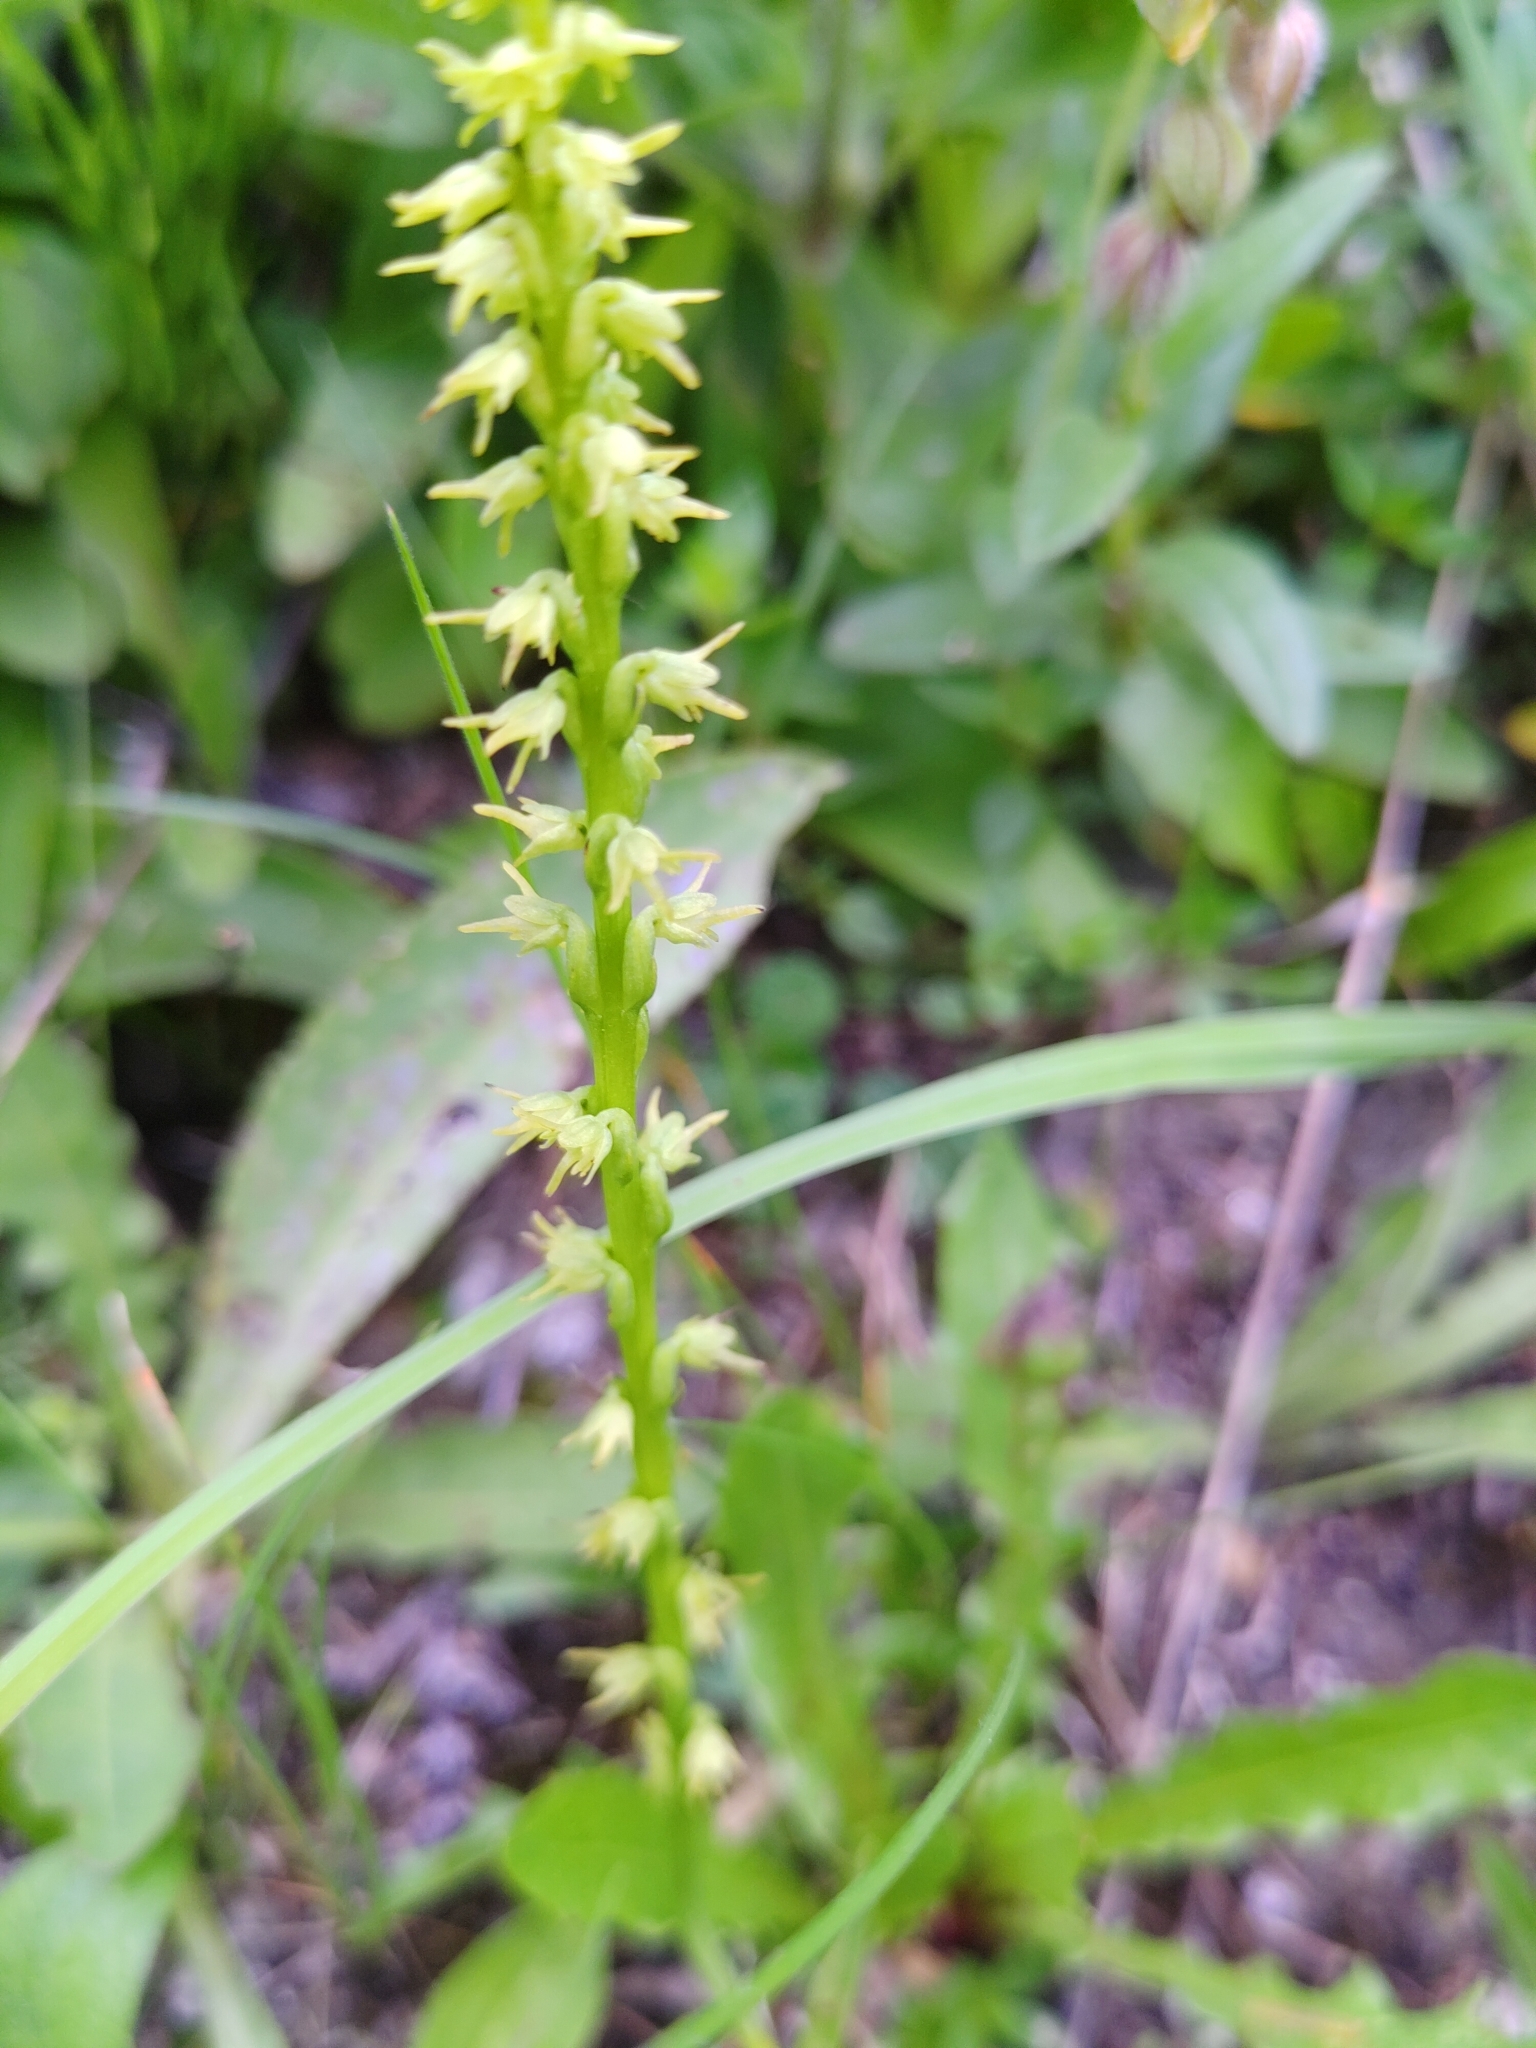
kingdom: Plantae
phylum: Tracheophyta
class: Liliopsida
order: Asparagales
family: Orchidaceae
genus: Herminium
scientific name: Herminium monorchis
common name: Musk orchid
